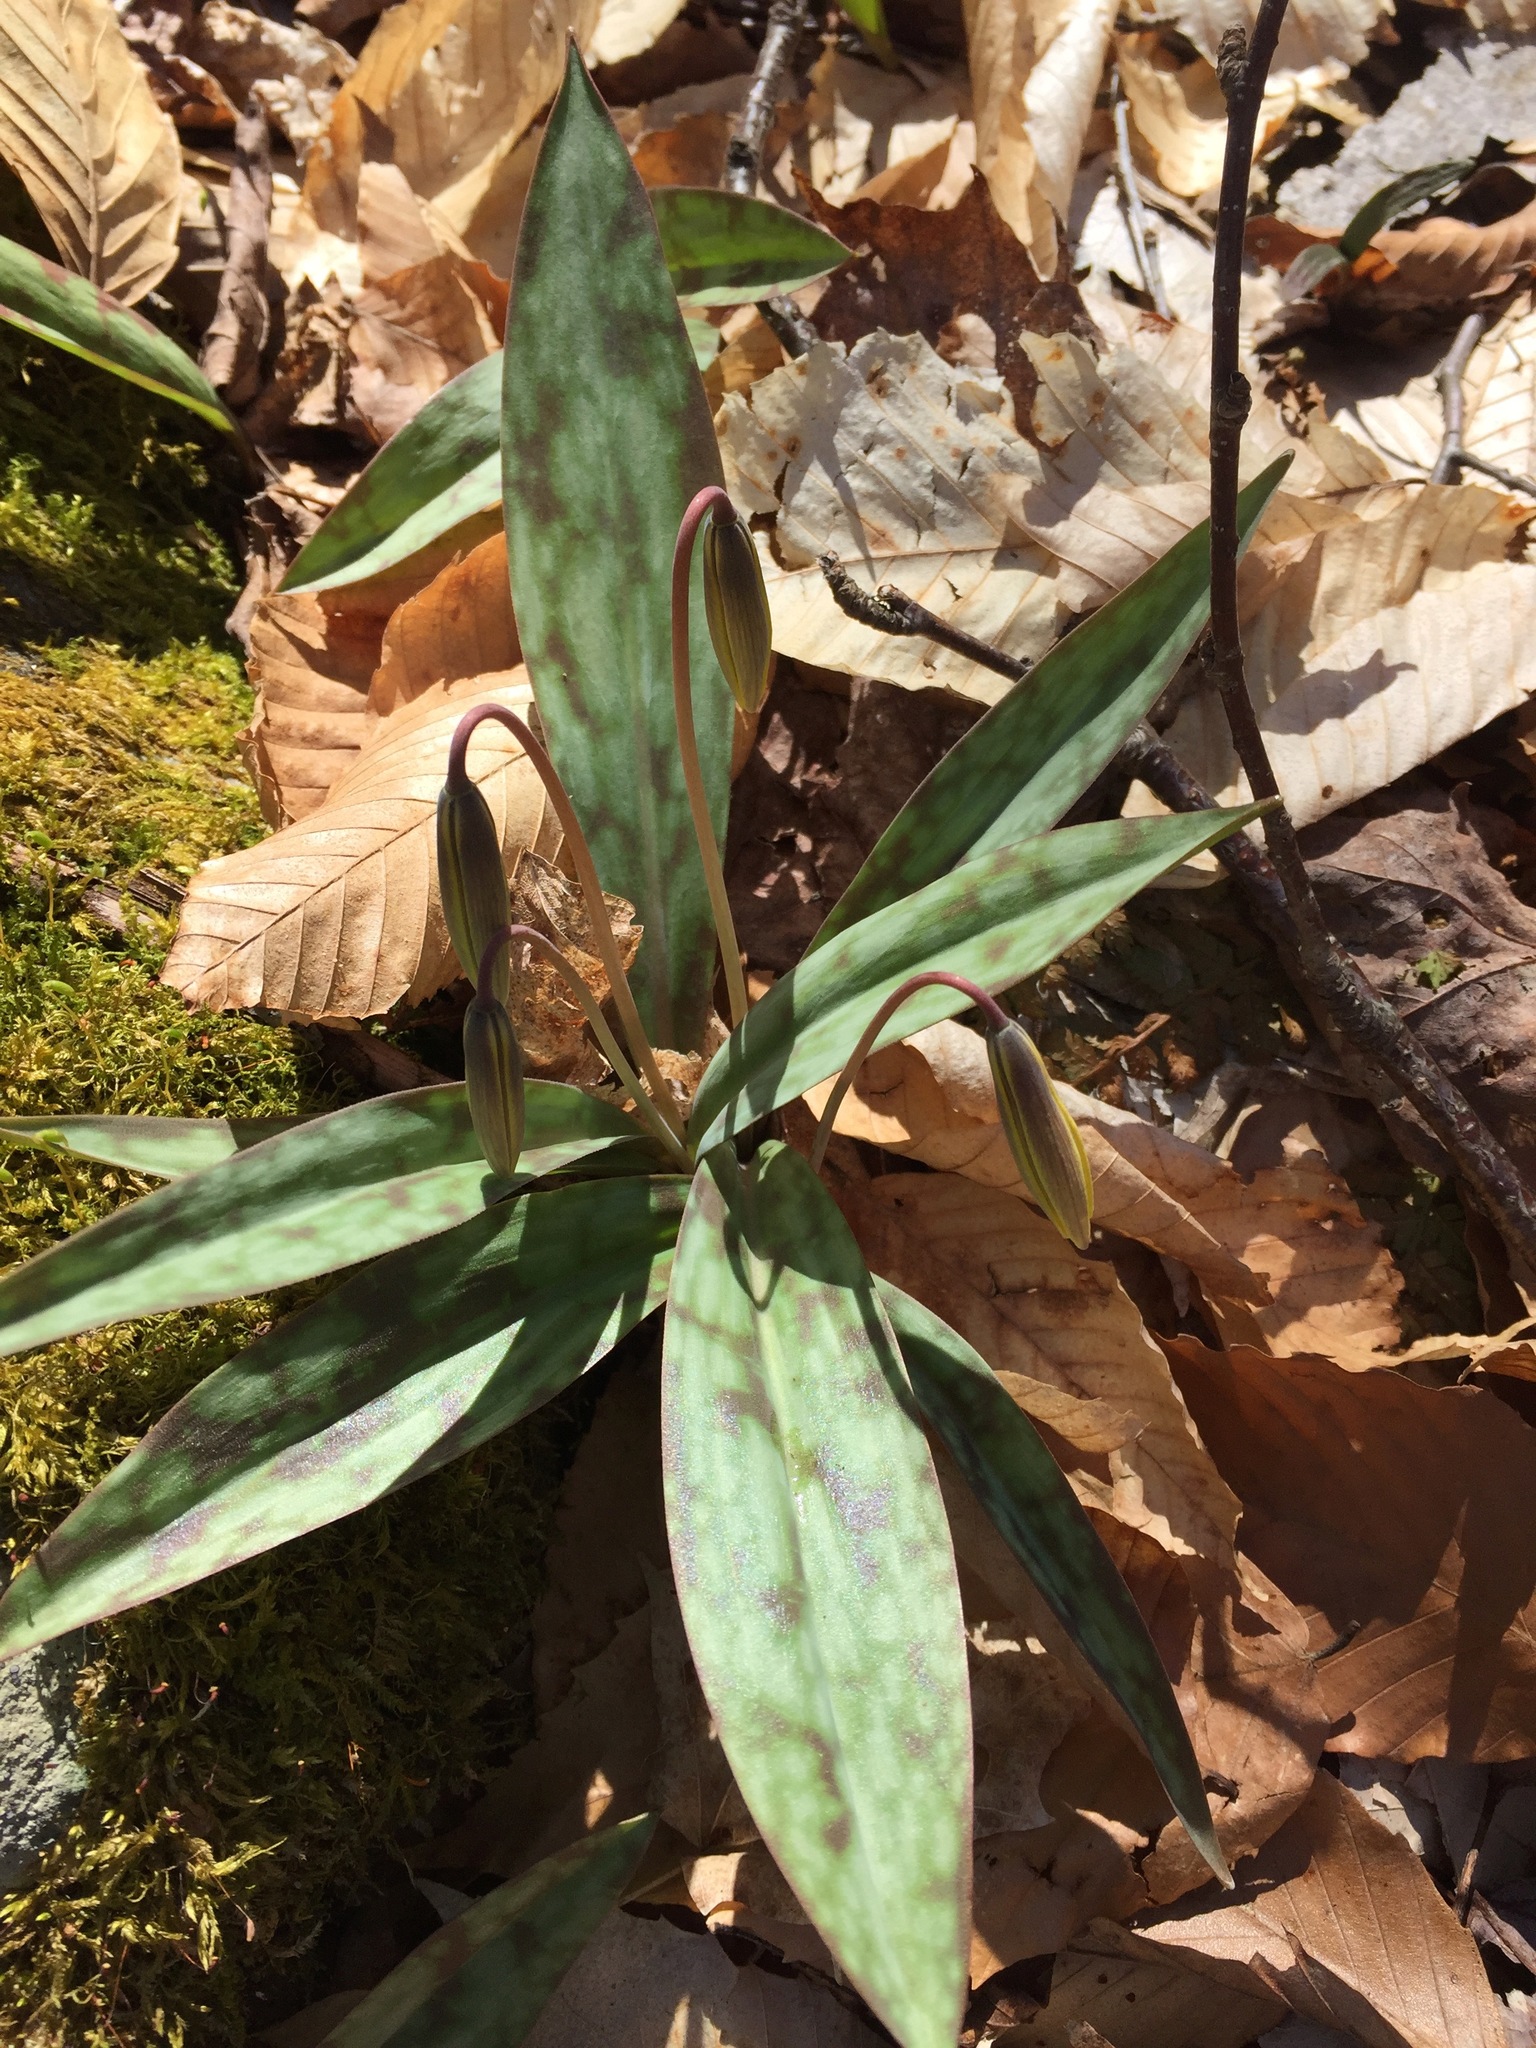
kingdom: Plantae
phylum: Tracheophyta
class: Liliopsida
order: Liliales
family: Liliaceae
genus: Erythronium
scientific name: Erythronium americanum
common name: Yellow adder's-tongue
